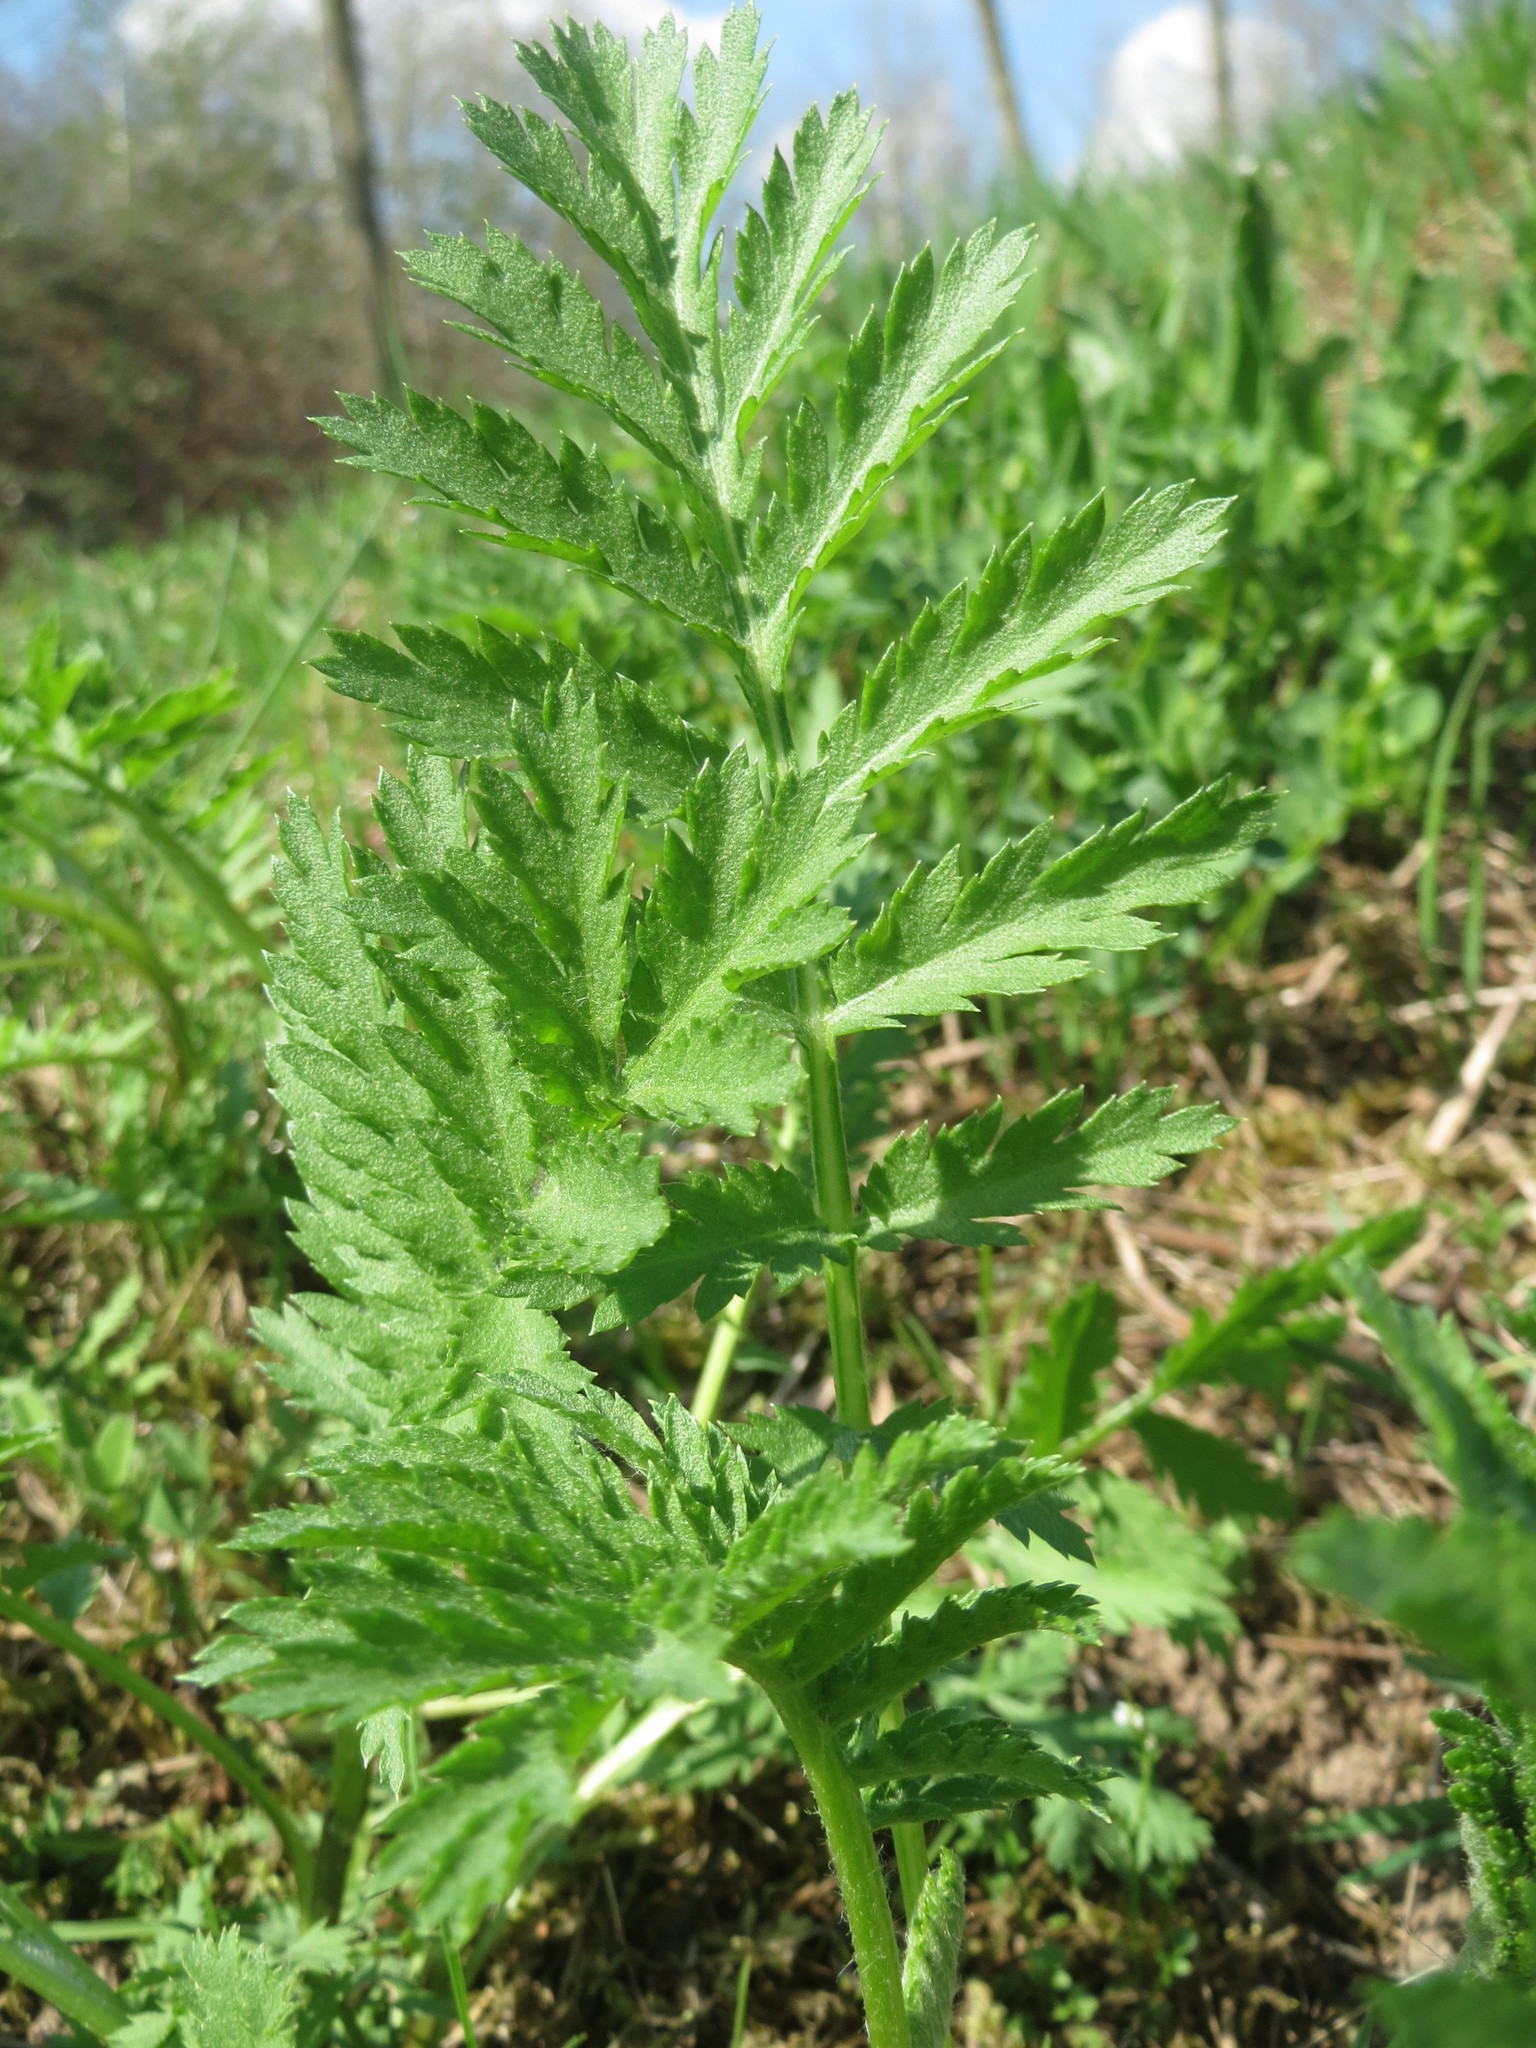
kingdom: Plantae
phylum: Tracheophyta
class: Magnoliopsida
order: Asterales
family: Asteraceae
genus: Tanacetum
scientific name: Tanacetum vulgare
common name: Common tansy
